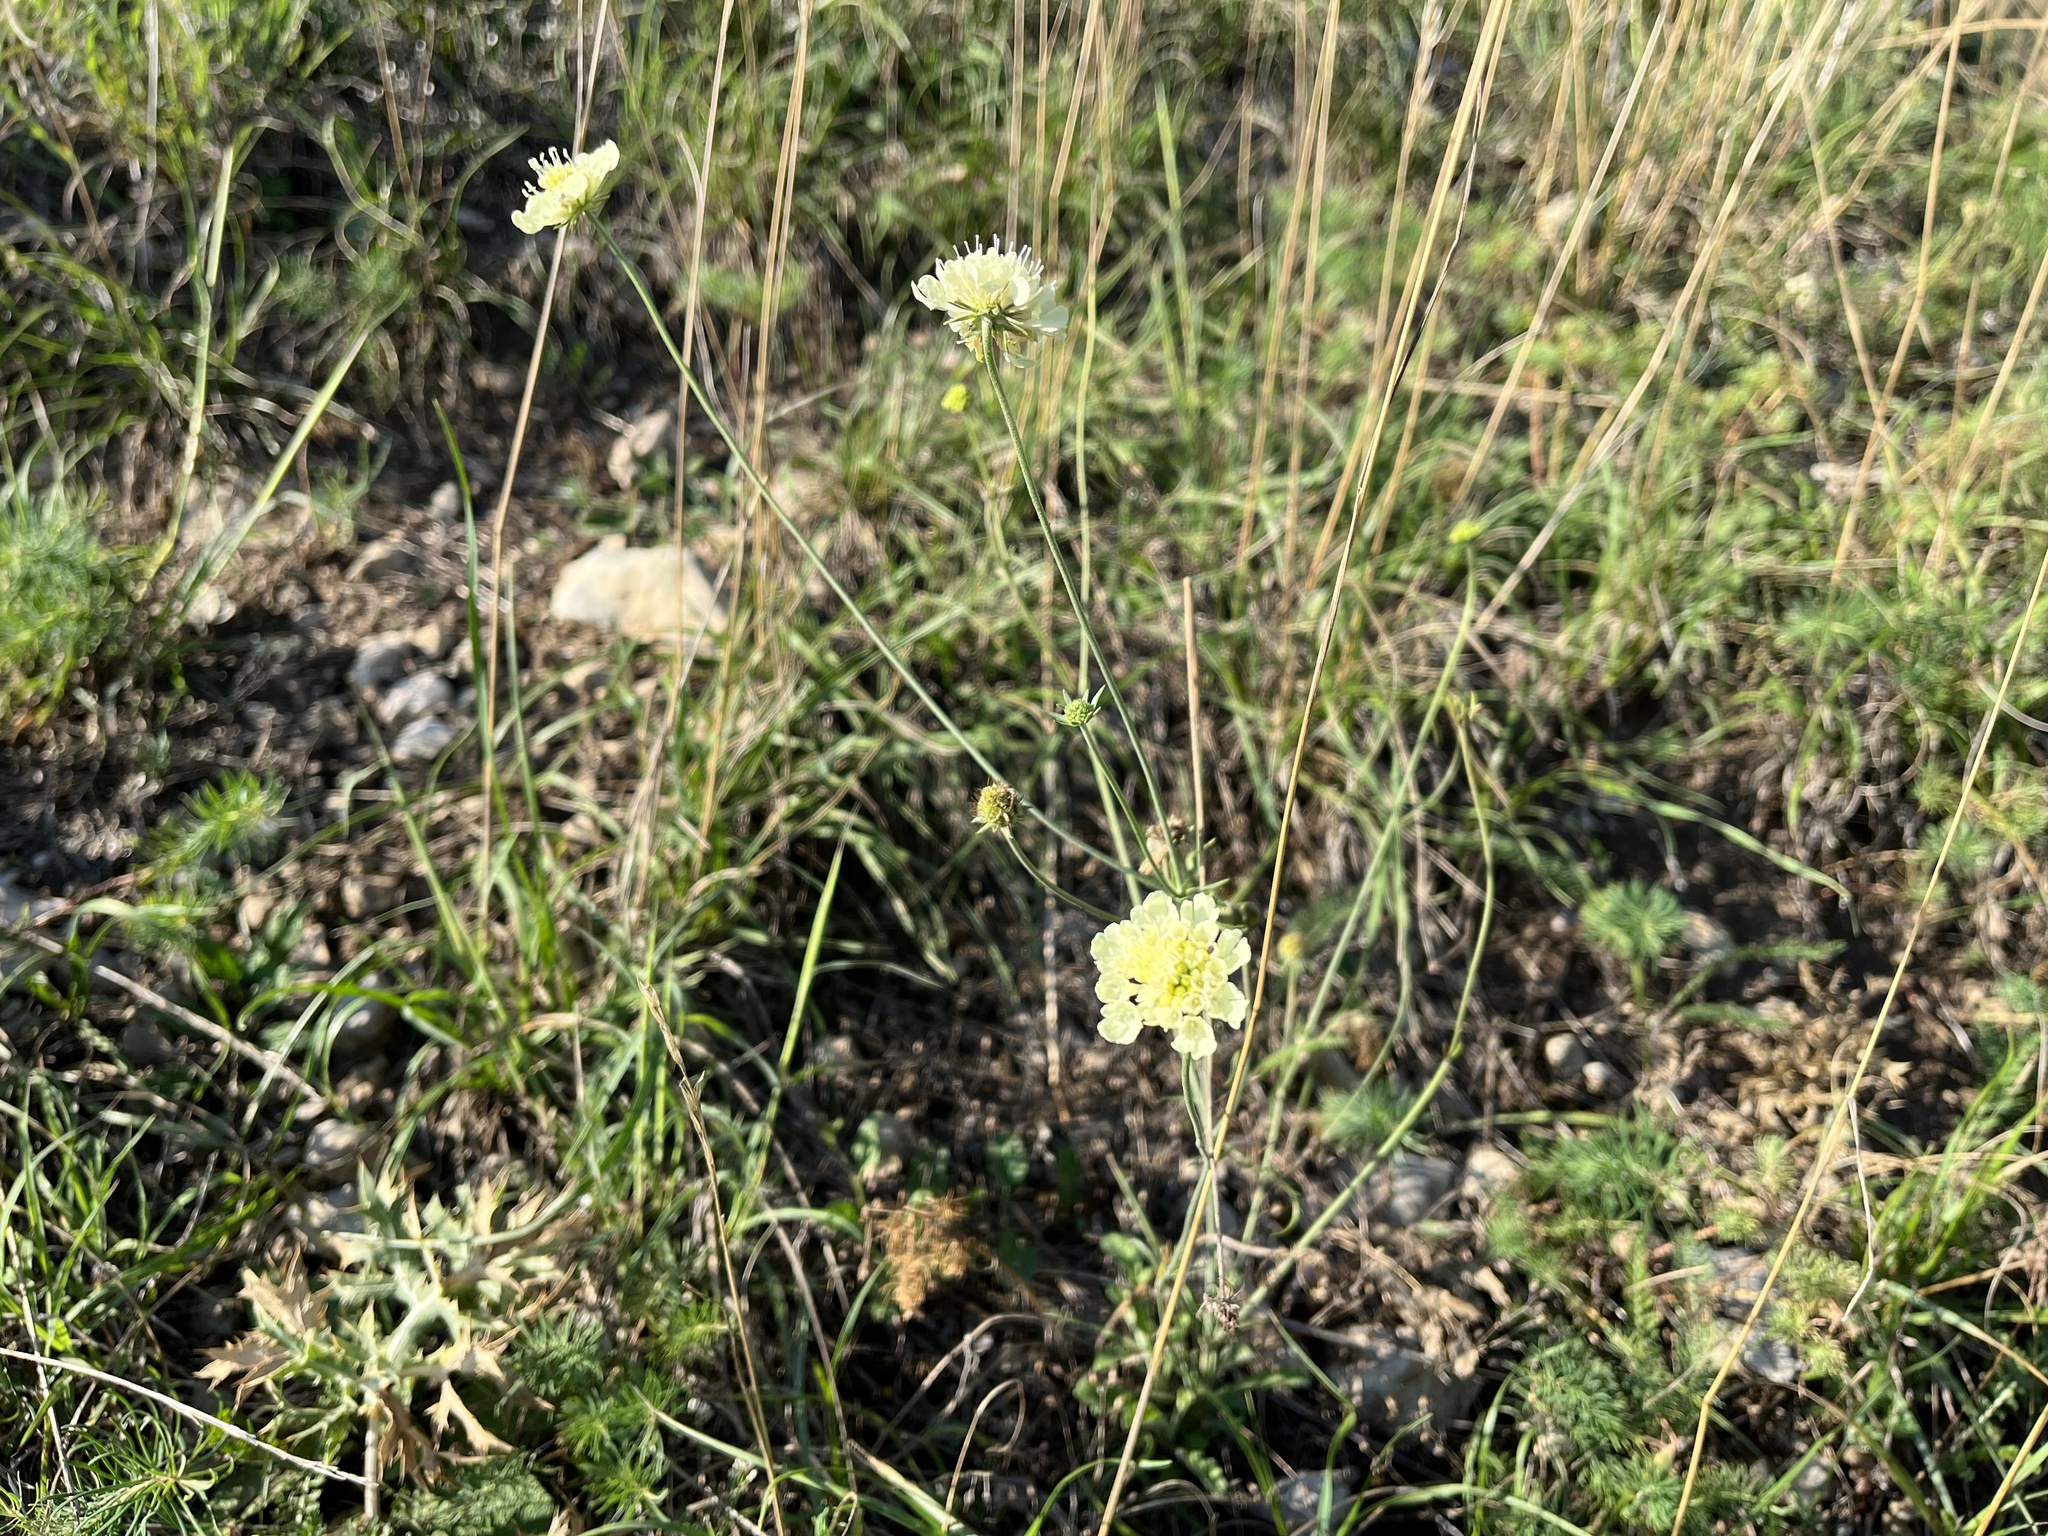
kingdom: Plantae
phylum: Tracheophyta
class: Magnoliopsida
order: Dipsacales
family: Caprifoliaceae
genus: Scabiosa
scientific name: Scabiosa ochroleuca
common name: Cream pincushions
